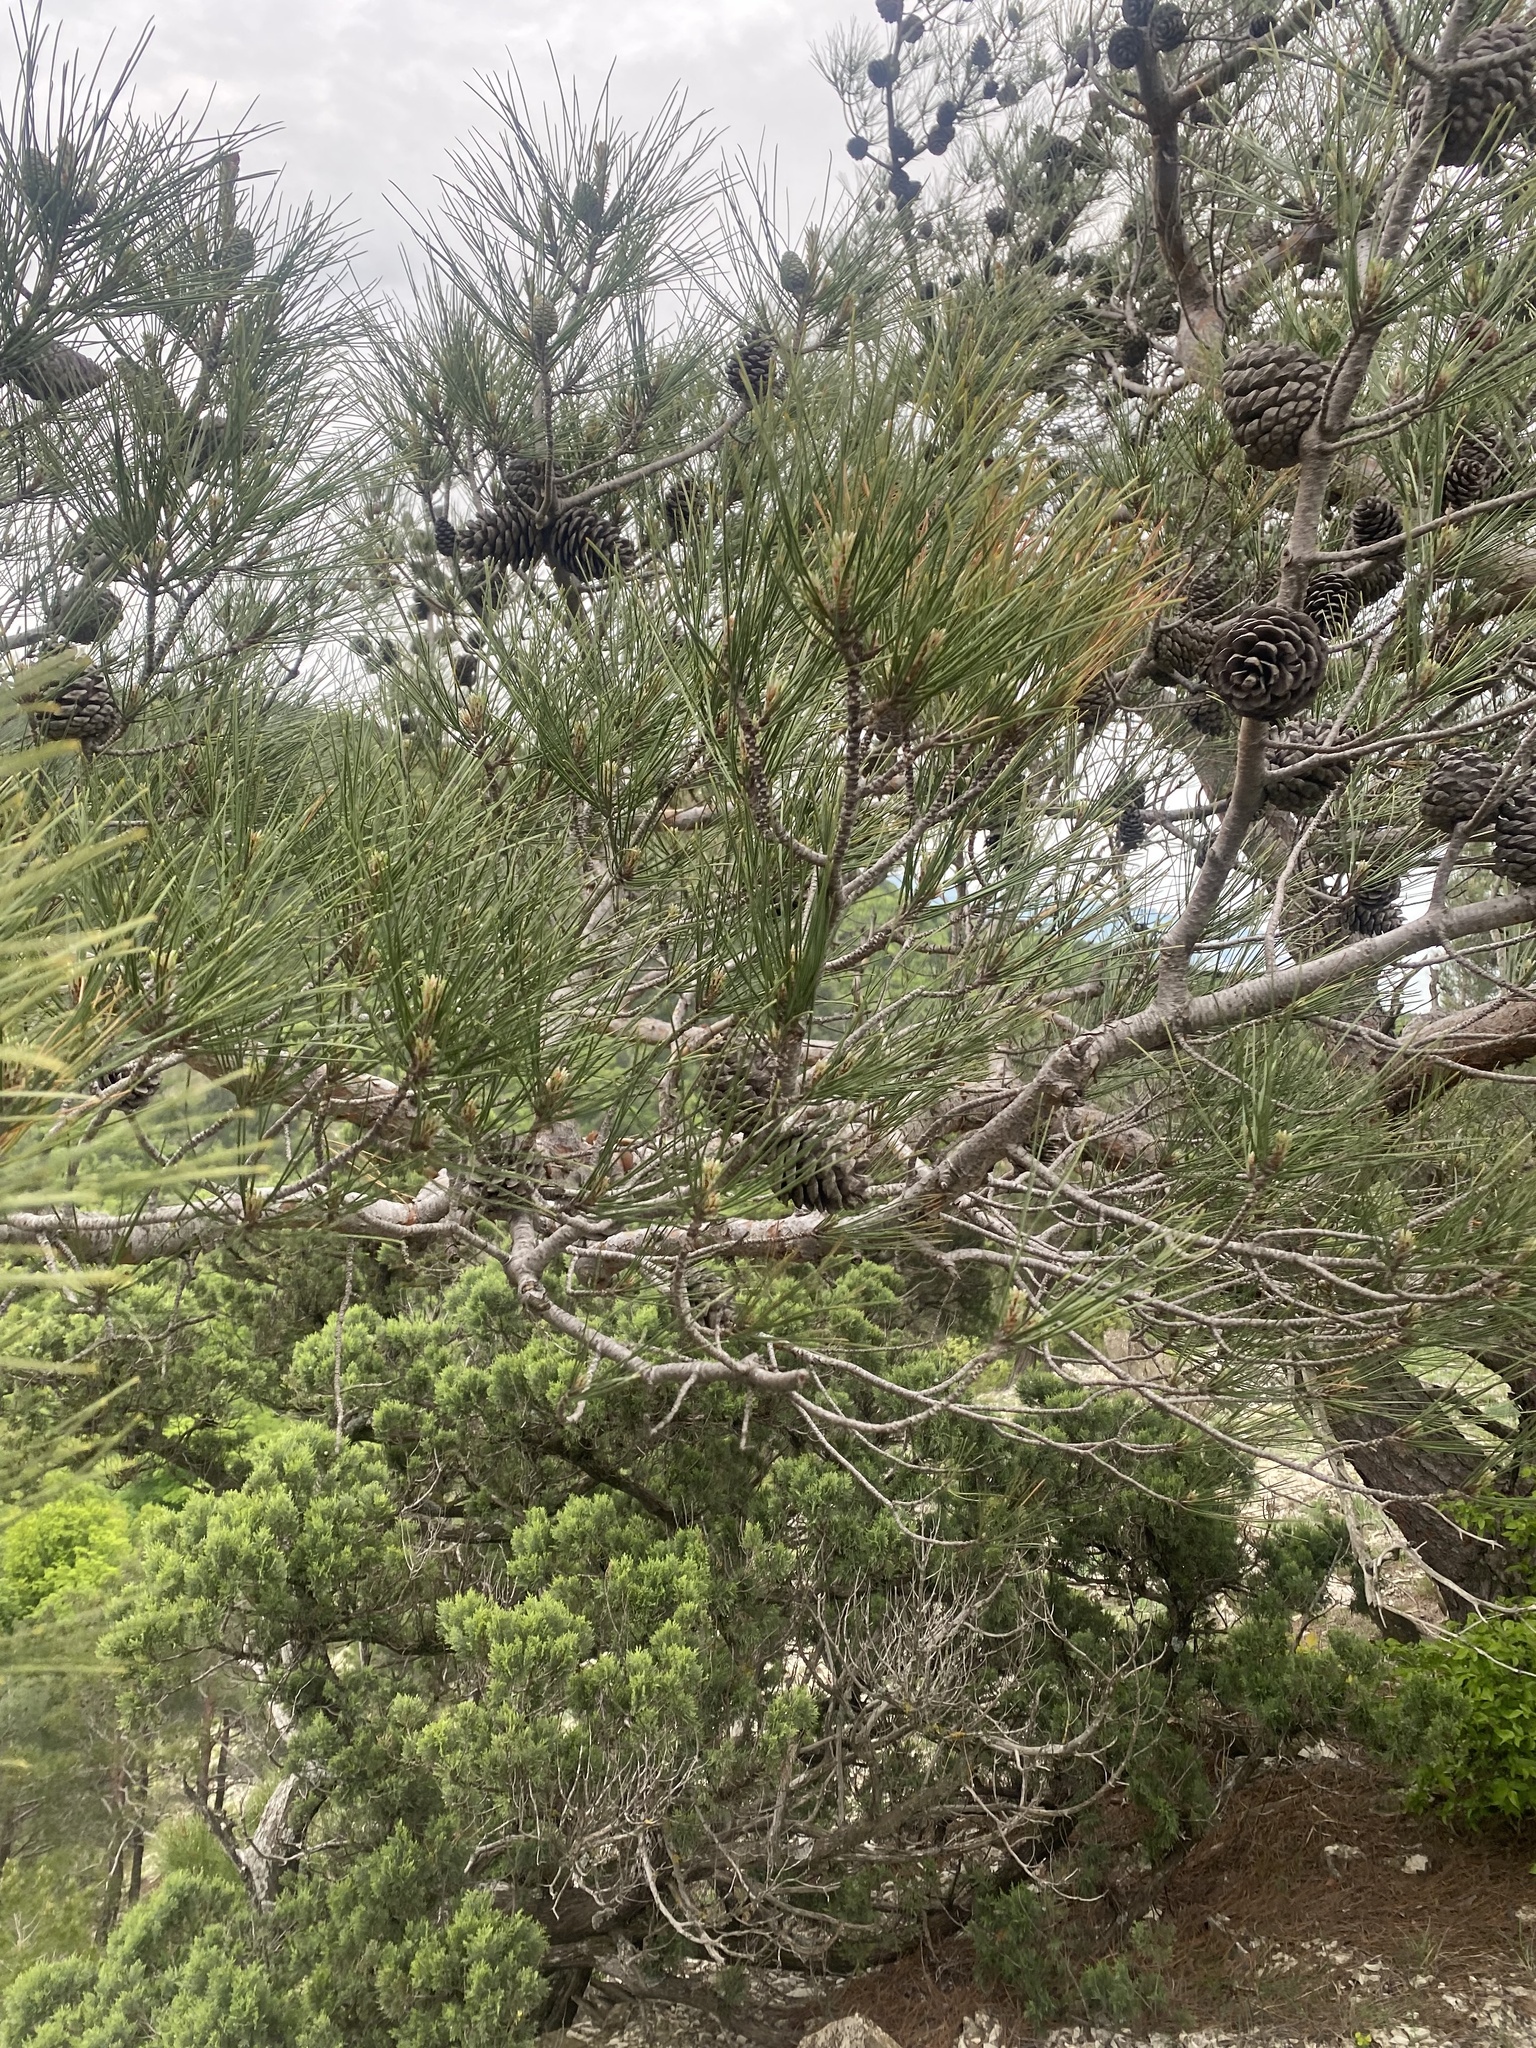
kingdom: Plantae
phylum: Tracheophyta
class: Pinopsida
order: Pinales
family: Pinaceae
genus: Pinus
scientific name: Pinus brutia
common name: Turkish pine
